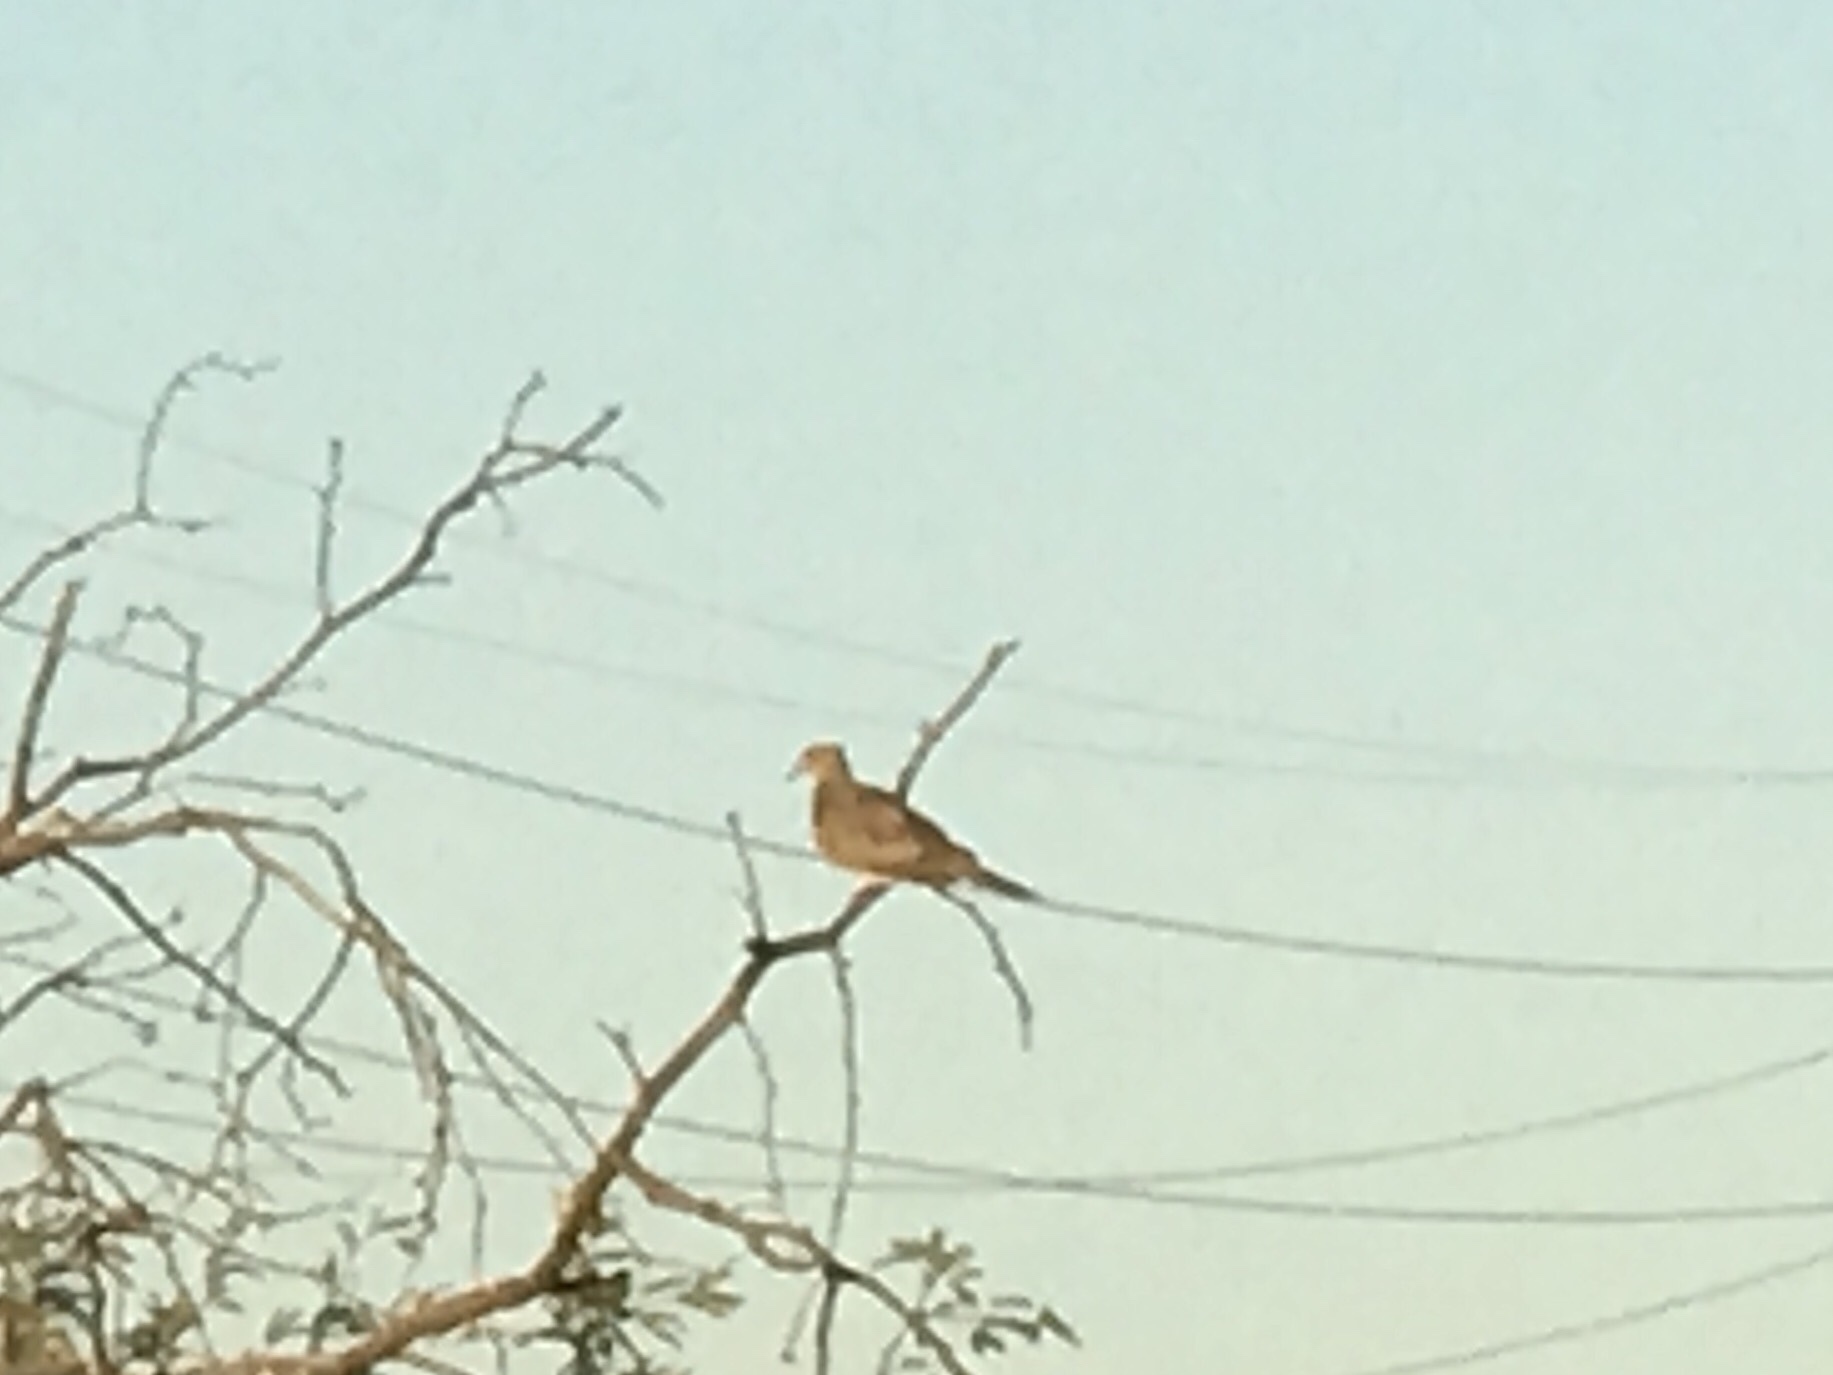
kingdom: Animalia
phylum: Chordata
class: Aves
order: Columbiformes
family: Columbidae
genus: Zenaida
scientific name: Zenaida macroura
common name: Mourning dove
